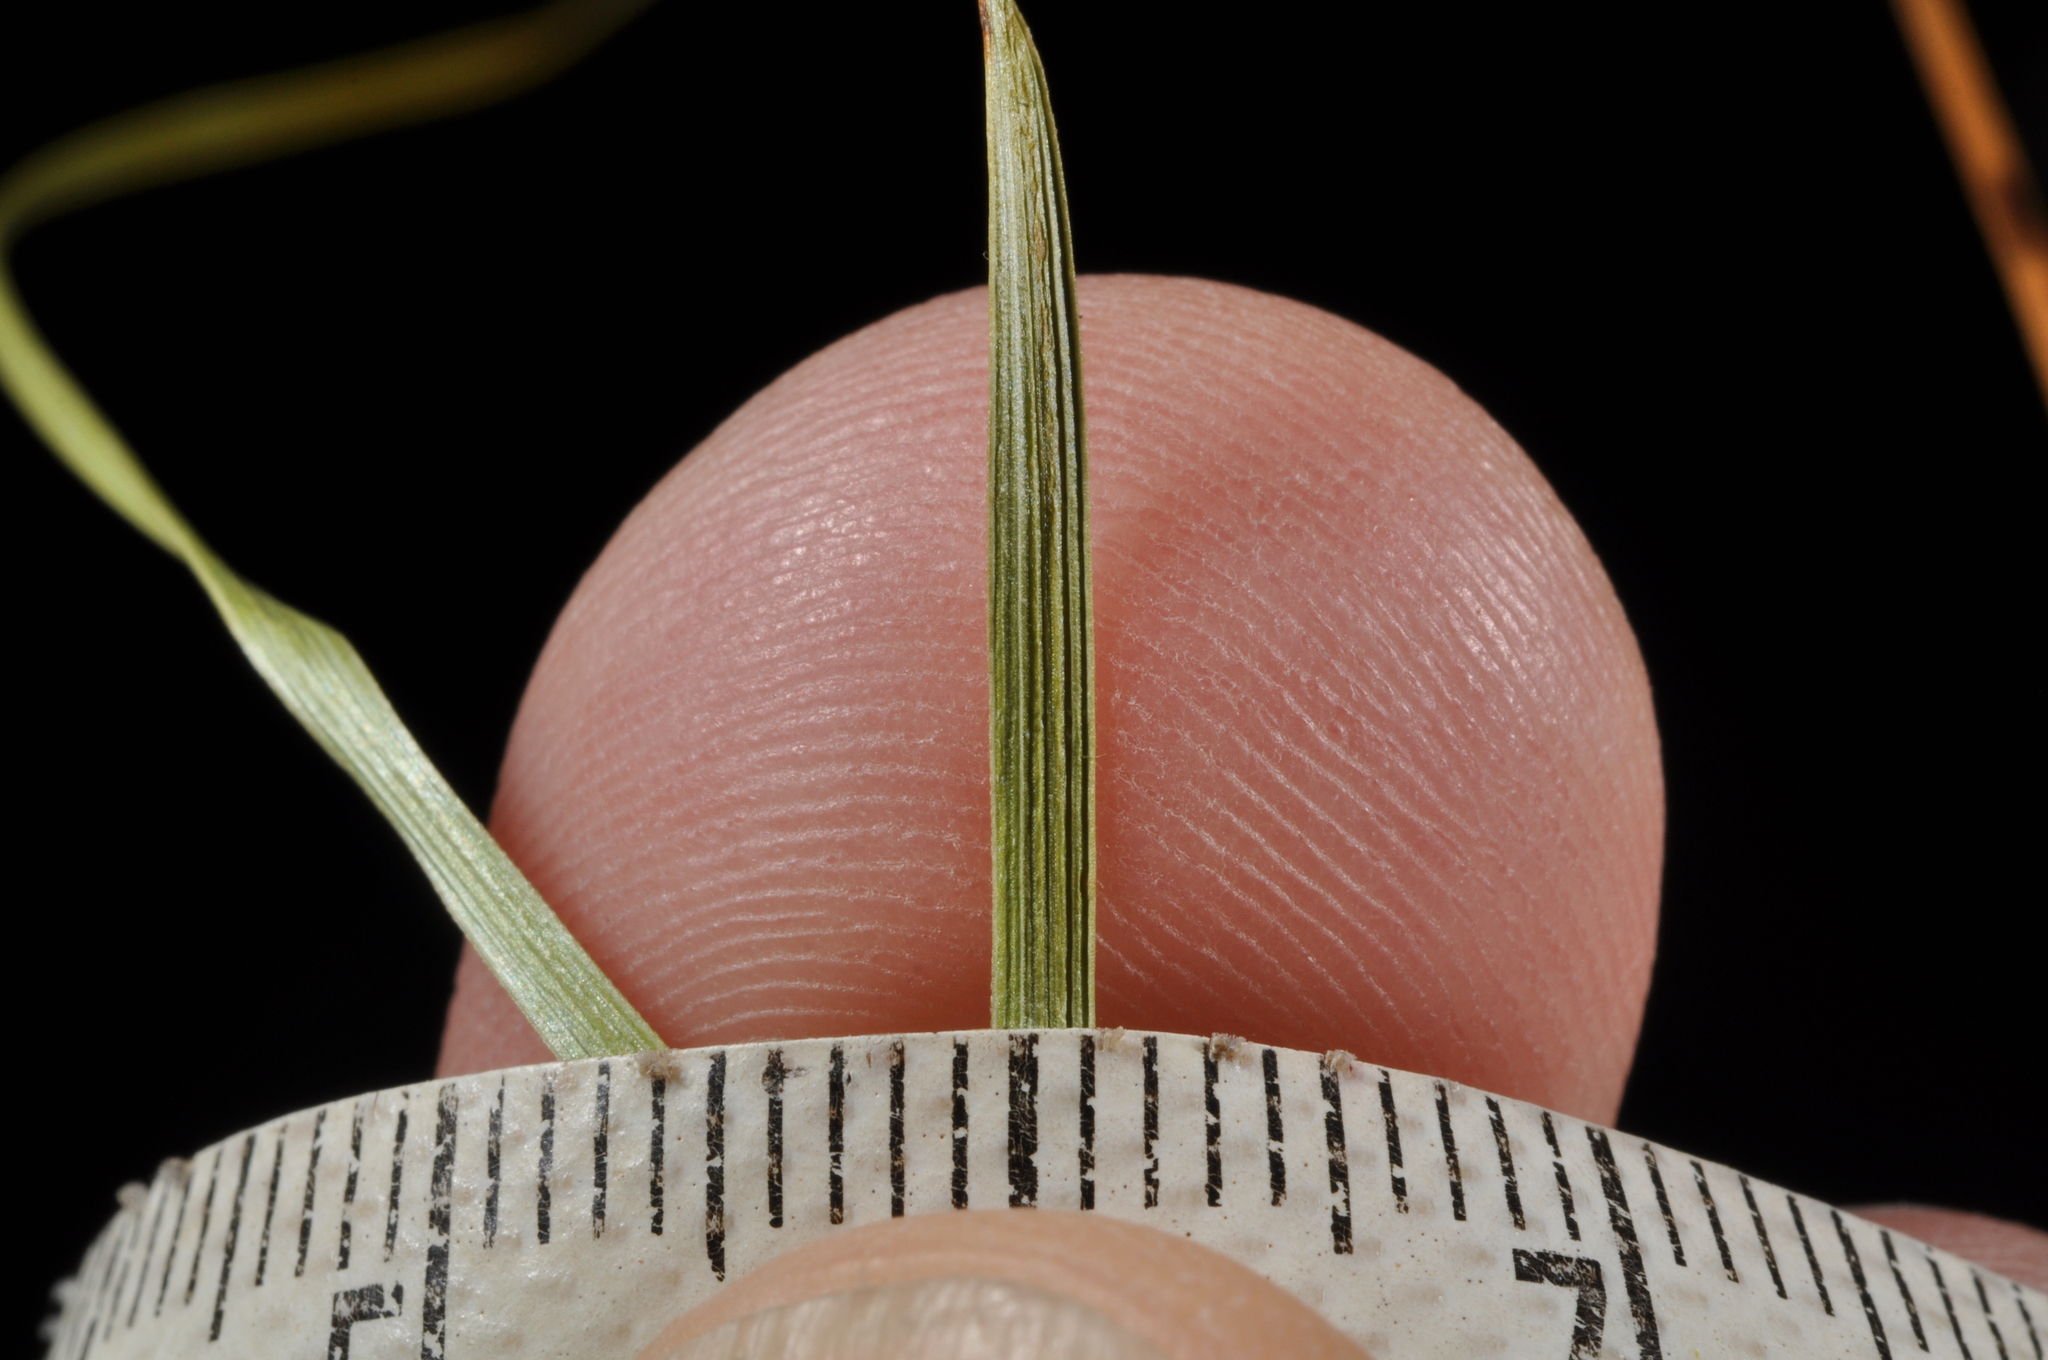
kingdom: Plantae
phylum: Tracheophyta
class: Liliopsida
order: Poales
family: Cyperaceae
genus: Carex
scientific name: Carex diandra
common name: Lesser tussock-sedge
